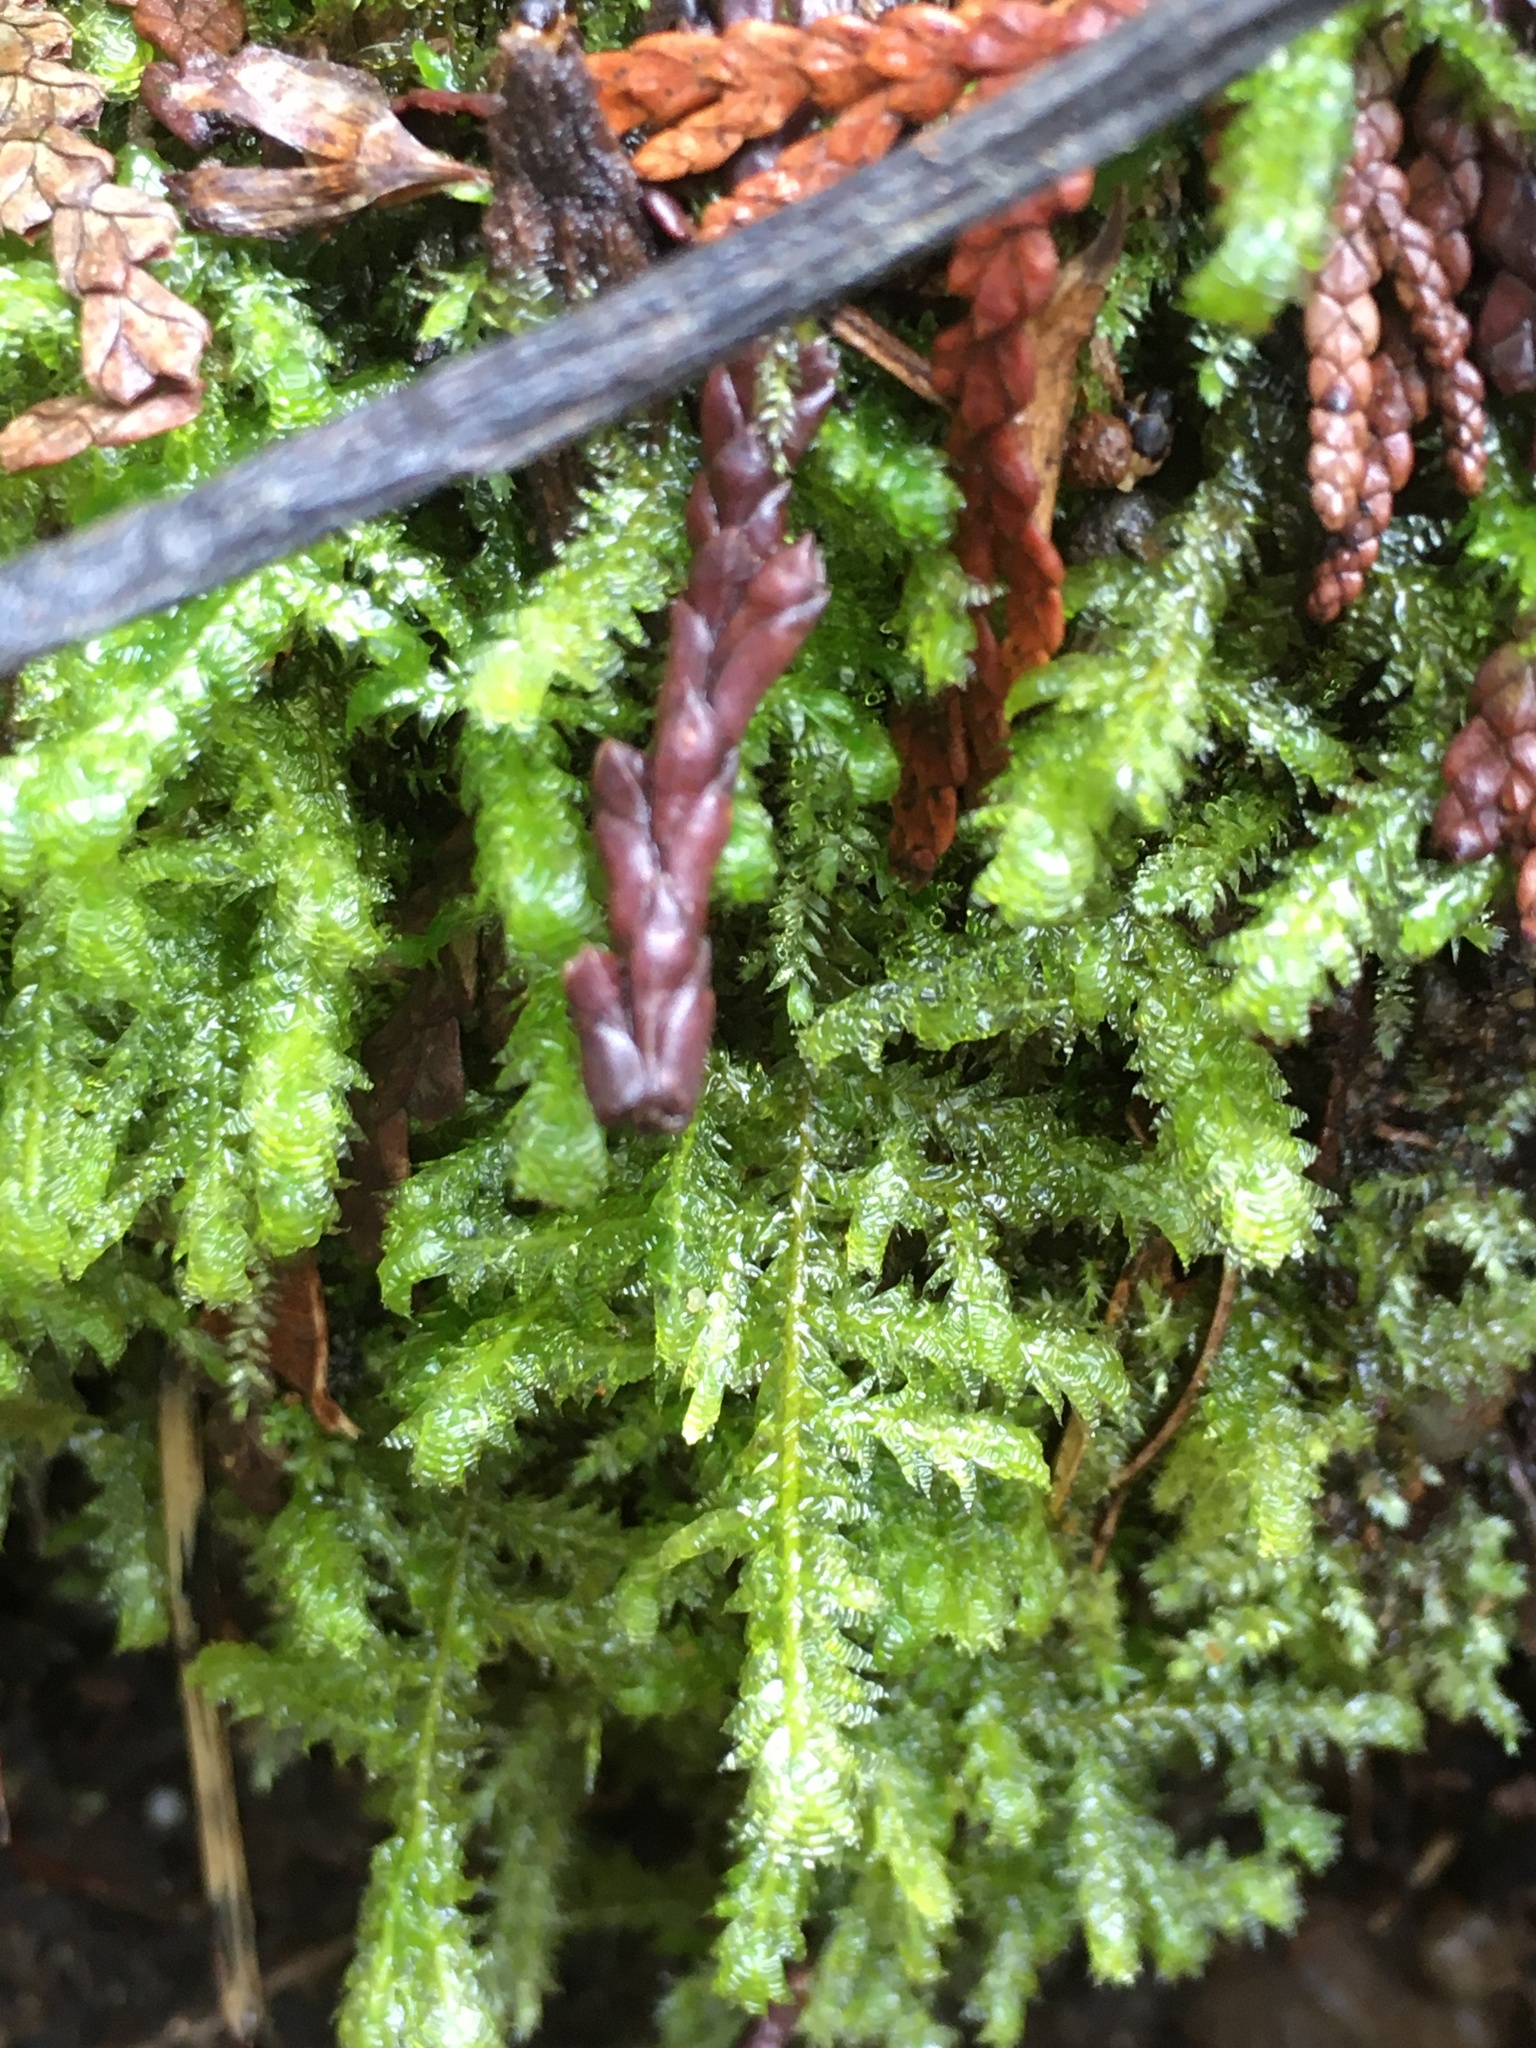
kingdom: Plantae
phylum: Bryophyta
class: Bryopsida
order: Hypnales
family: Neckeraceae
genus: Neckera
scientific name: Neckera douglasii
